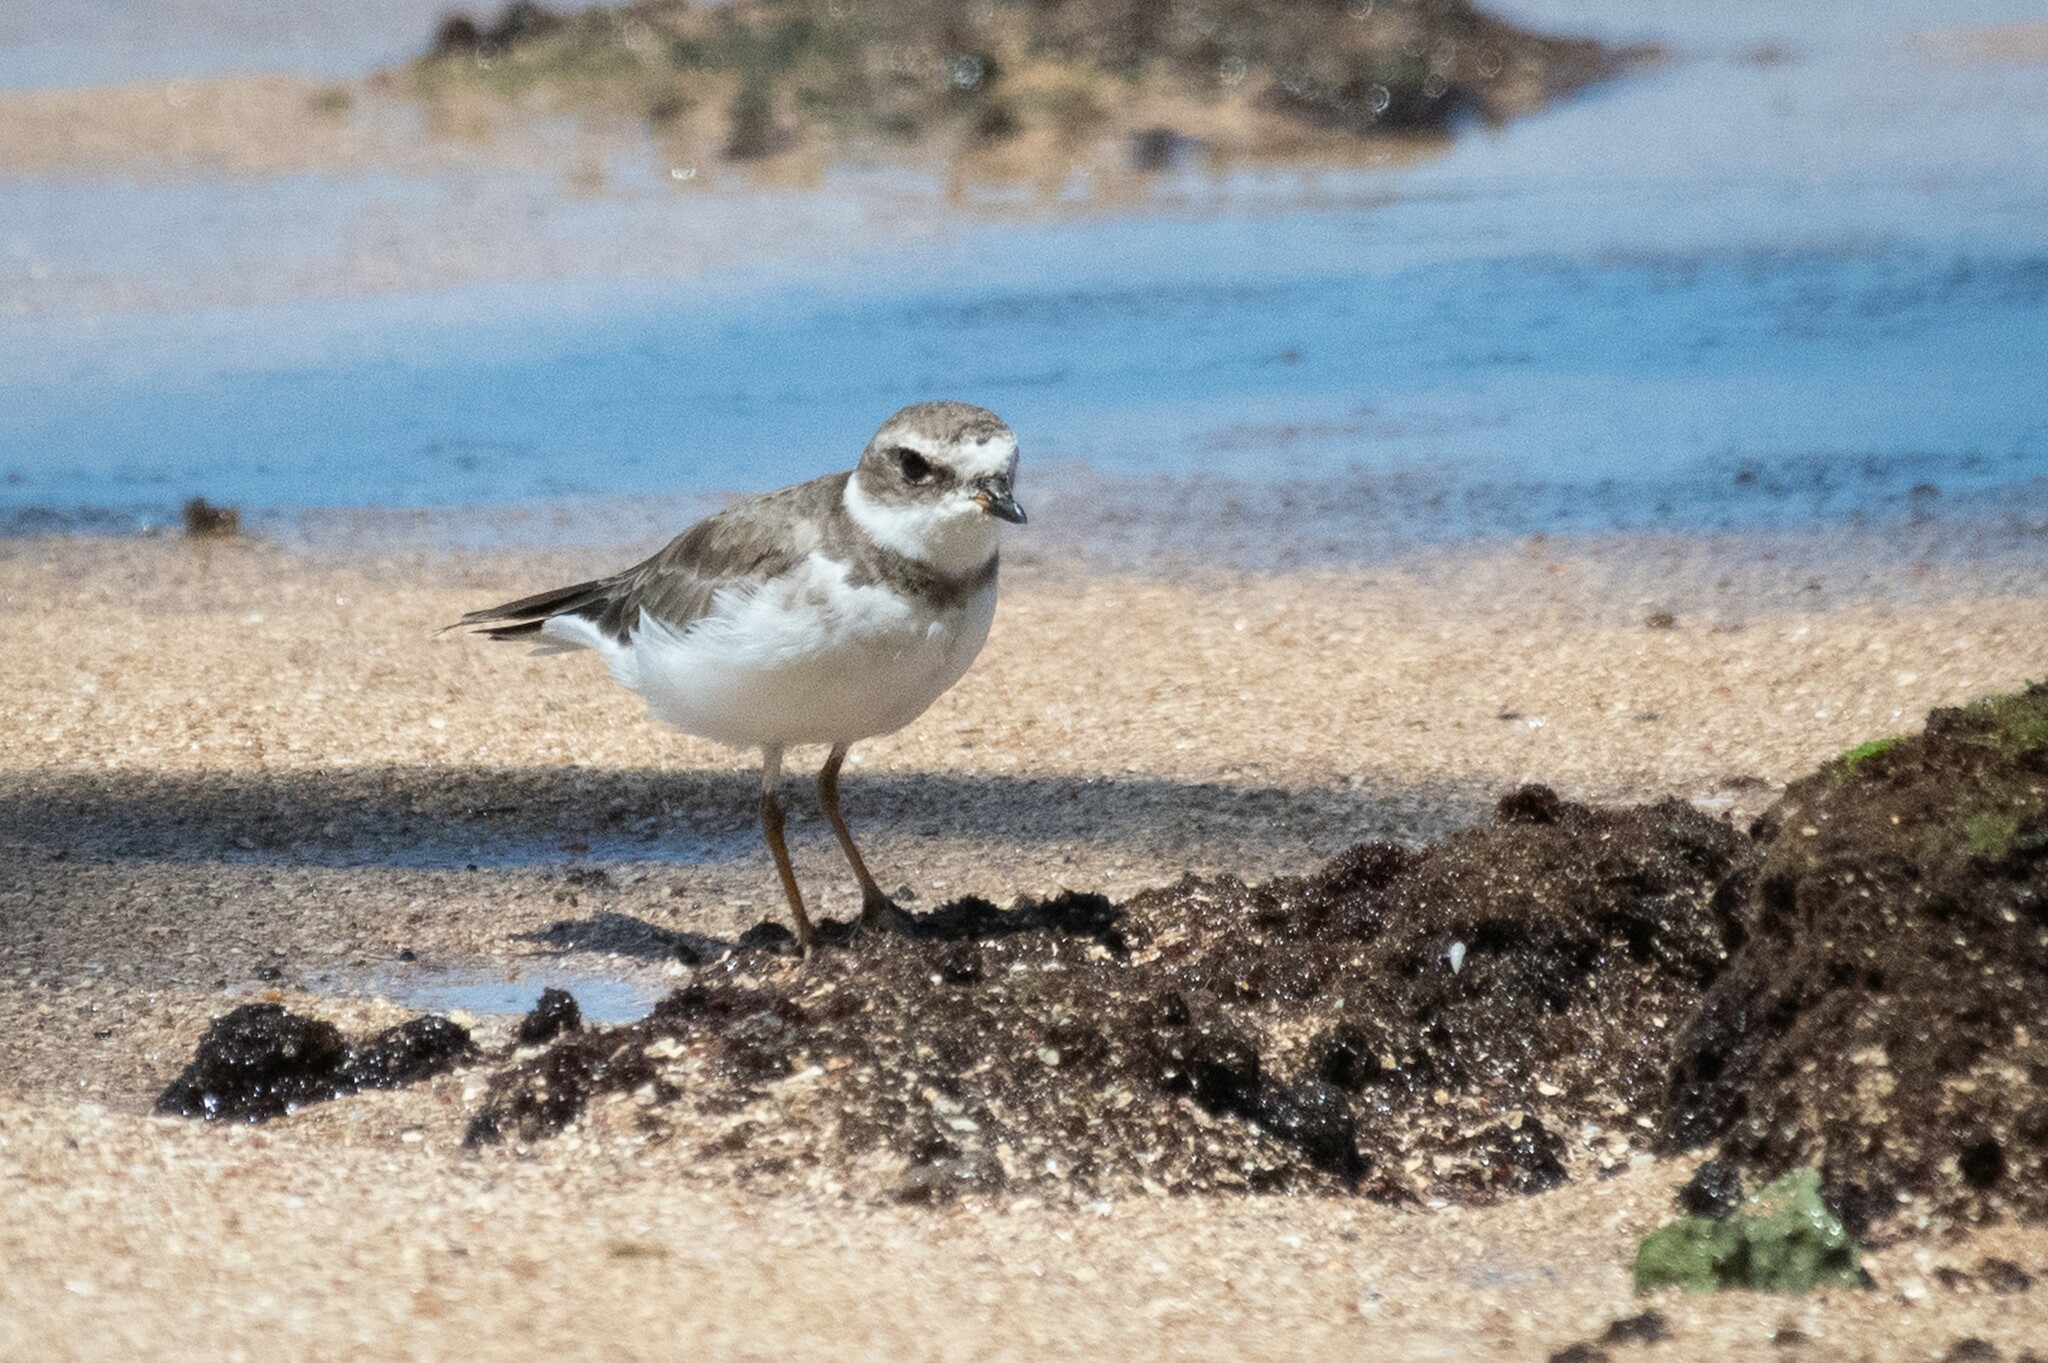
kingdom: Animalia
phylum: Chordata
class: Aves
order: Charadriiformes
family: Charadriidae
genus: Charadrius
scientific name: Charadrius semipalmatus
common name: Semipalmated plover
